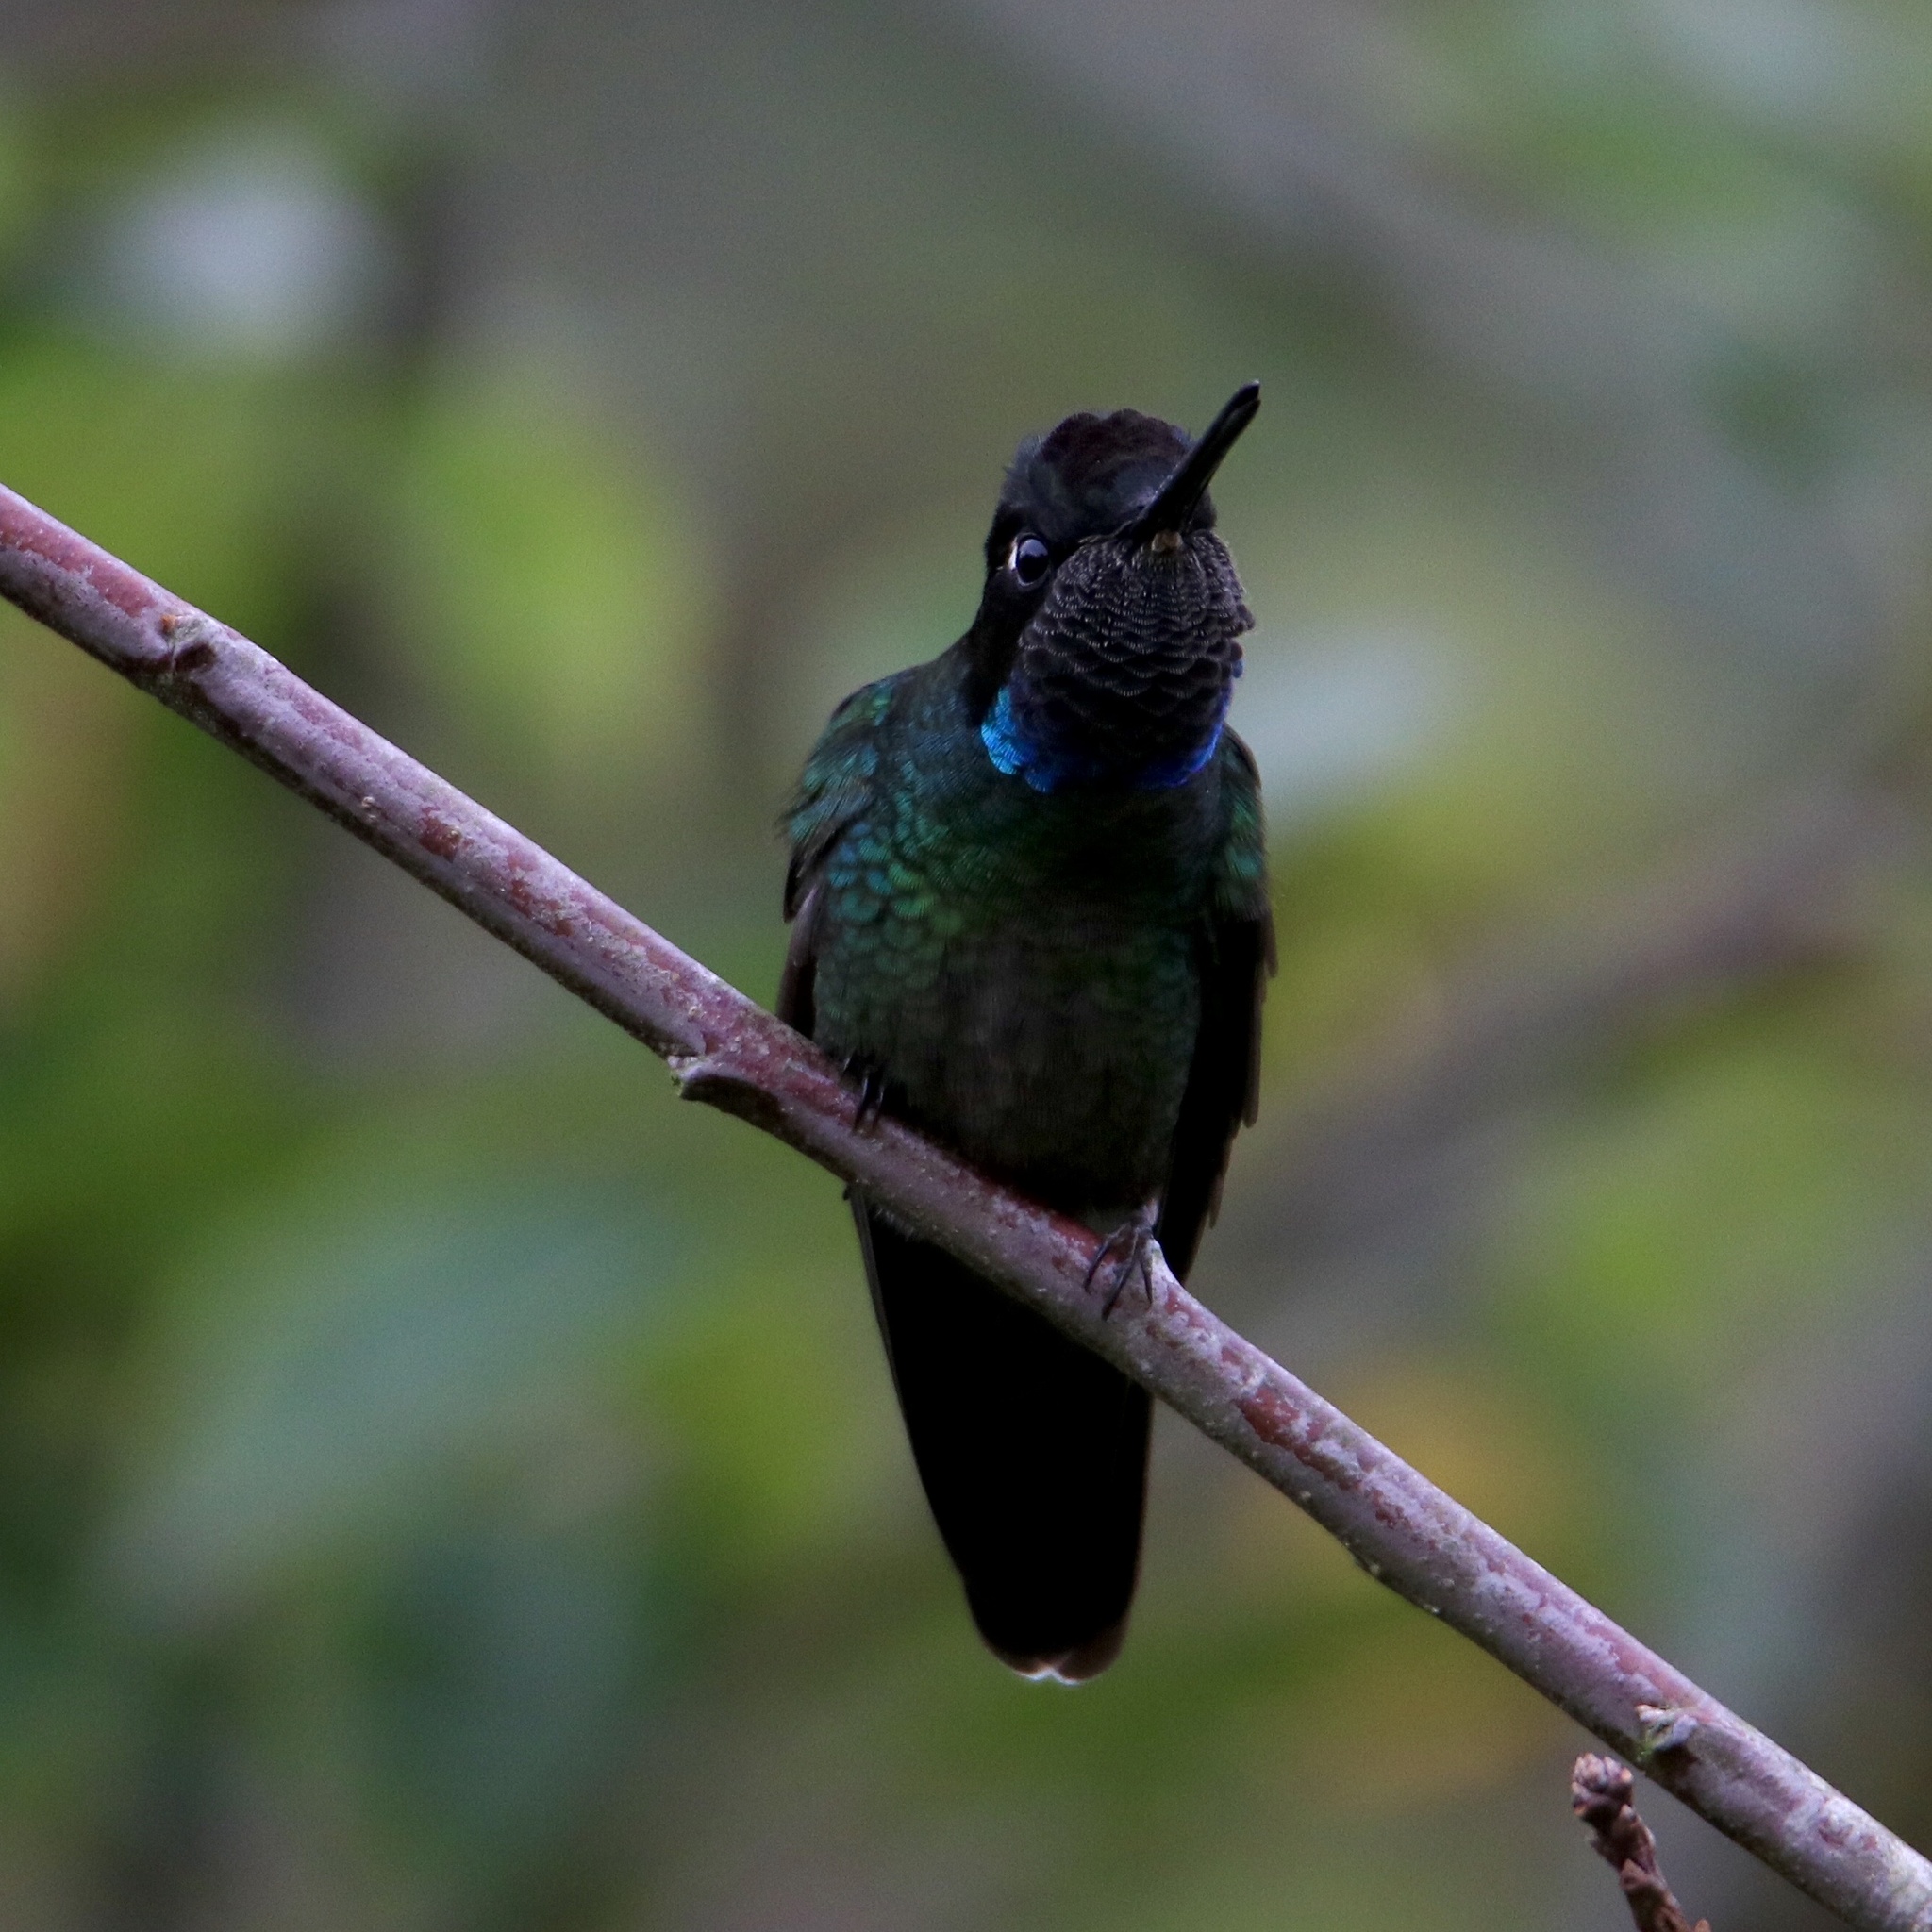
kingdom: Animalia
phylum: Chordata
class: Aves
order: Apodiformes
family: Trochilidae
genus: Eugenes
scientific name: Eugenes spectabilis
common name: Talamanca hummingbird
